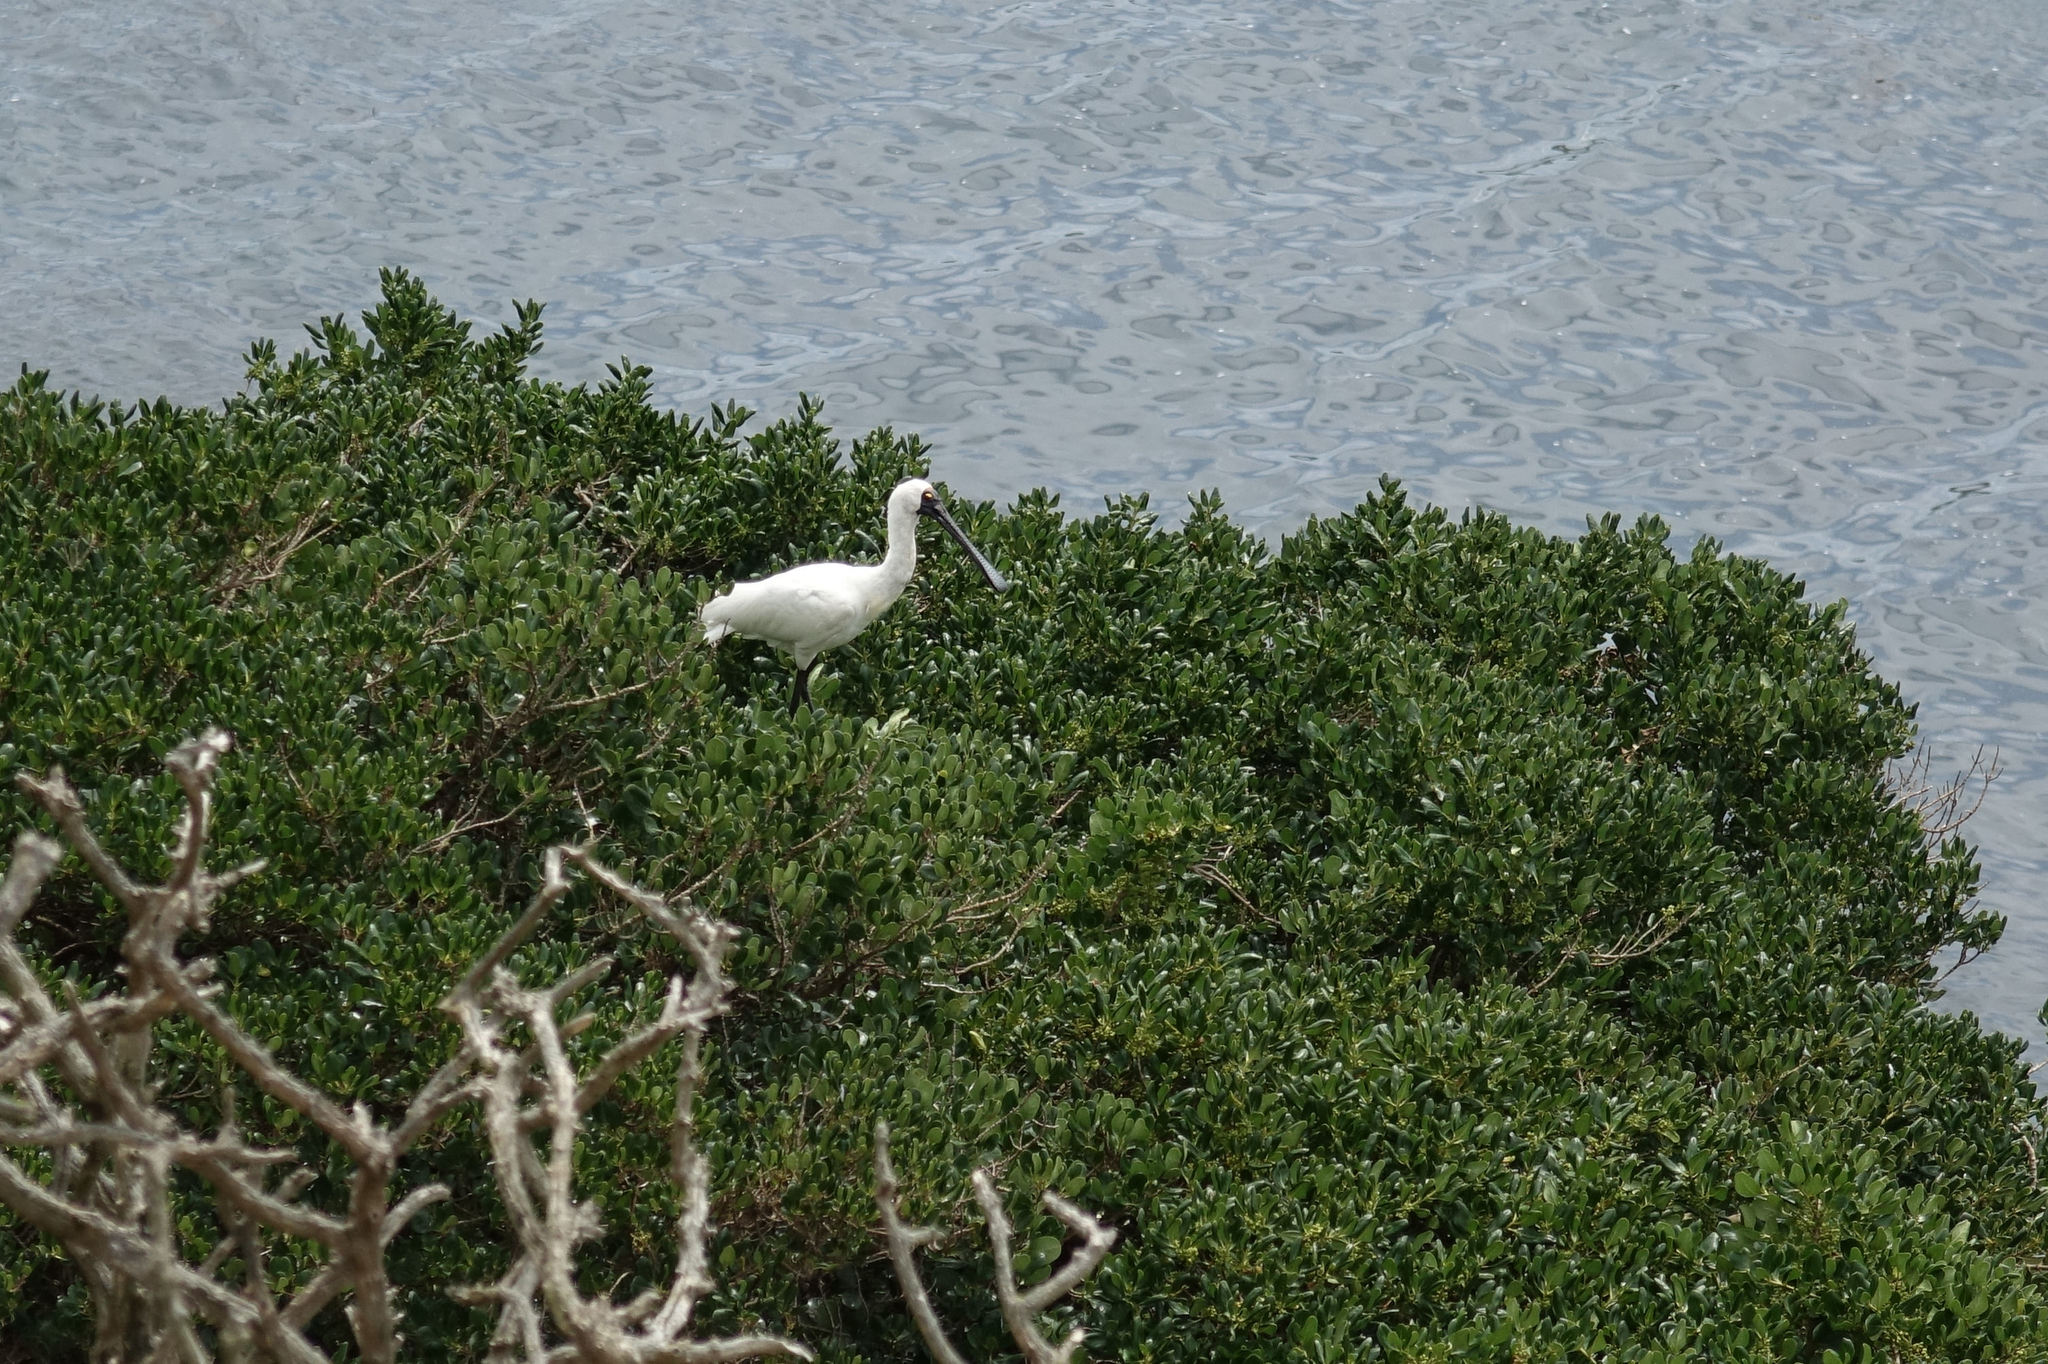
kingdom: Animalia
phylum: Chordata
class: Aves
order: Pelecaniformes
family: Threskiornithidae
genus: Platalea
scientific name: Platalea regia
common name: Royal spoonbill
